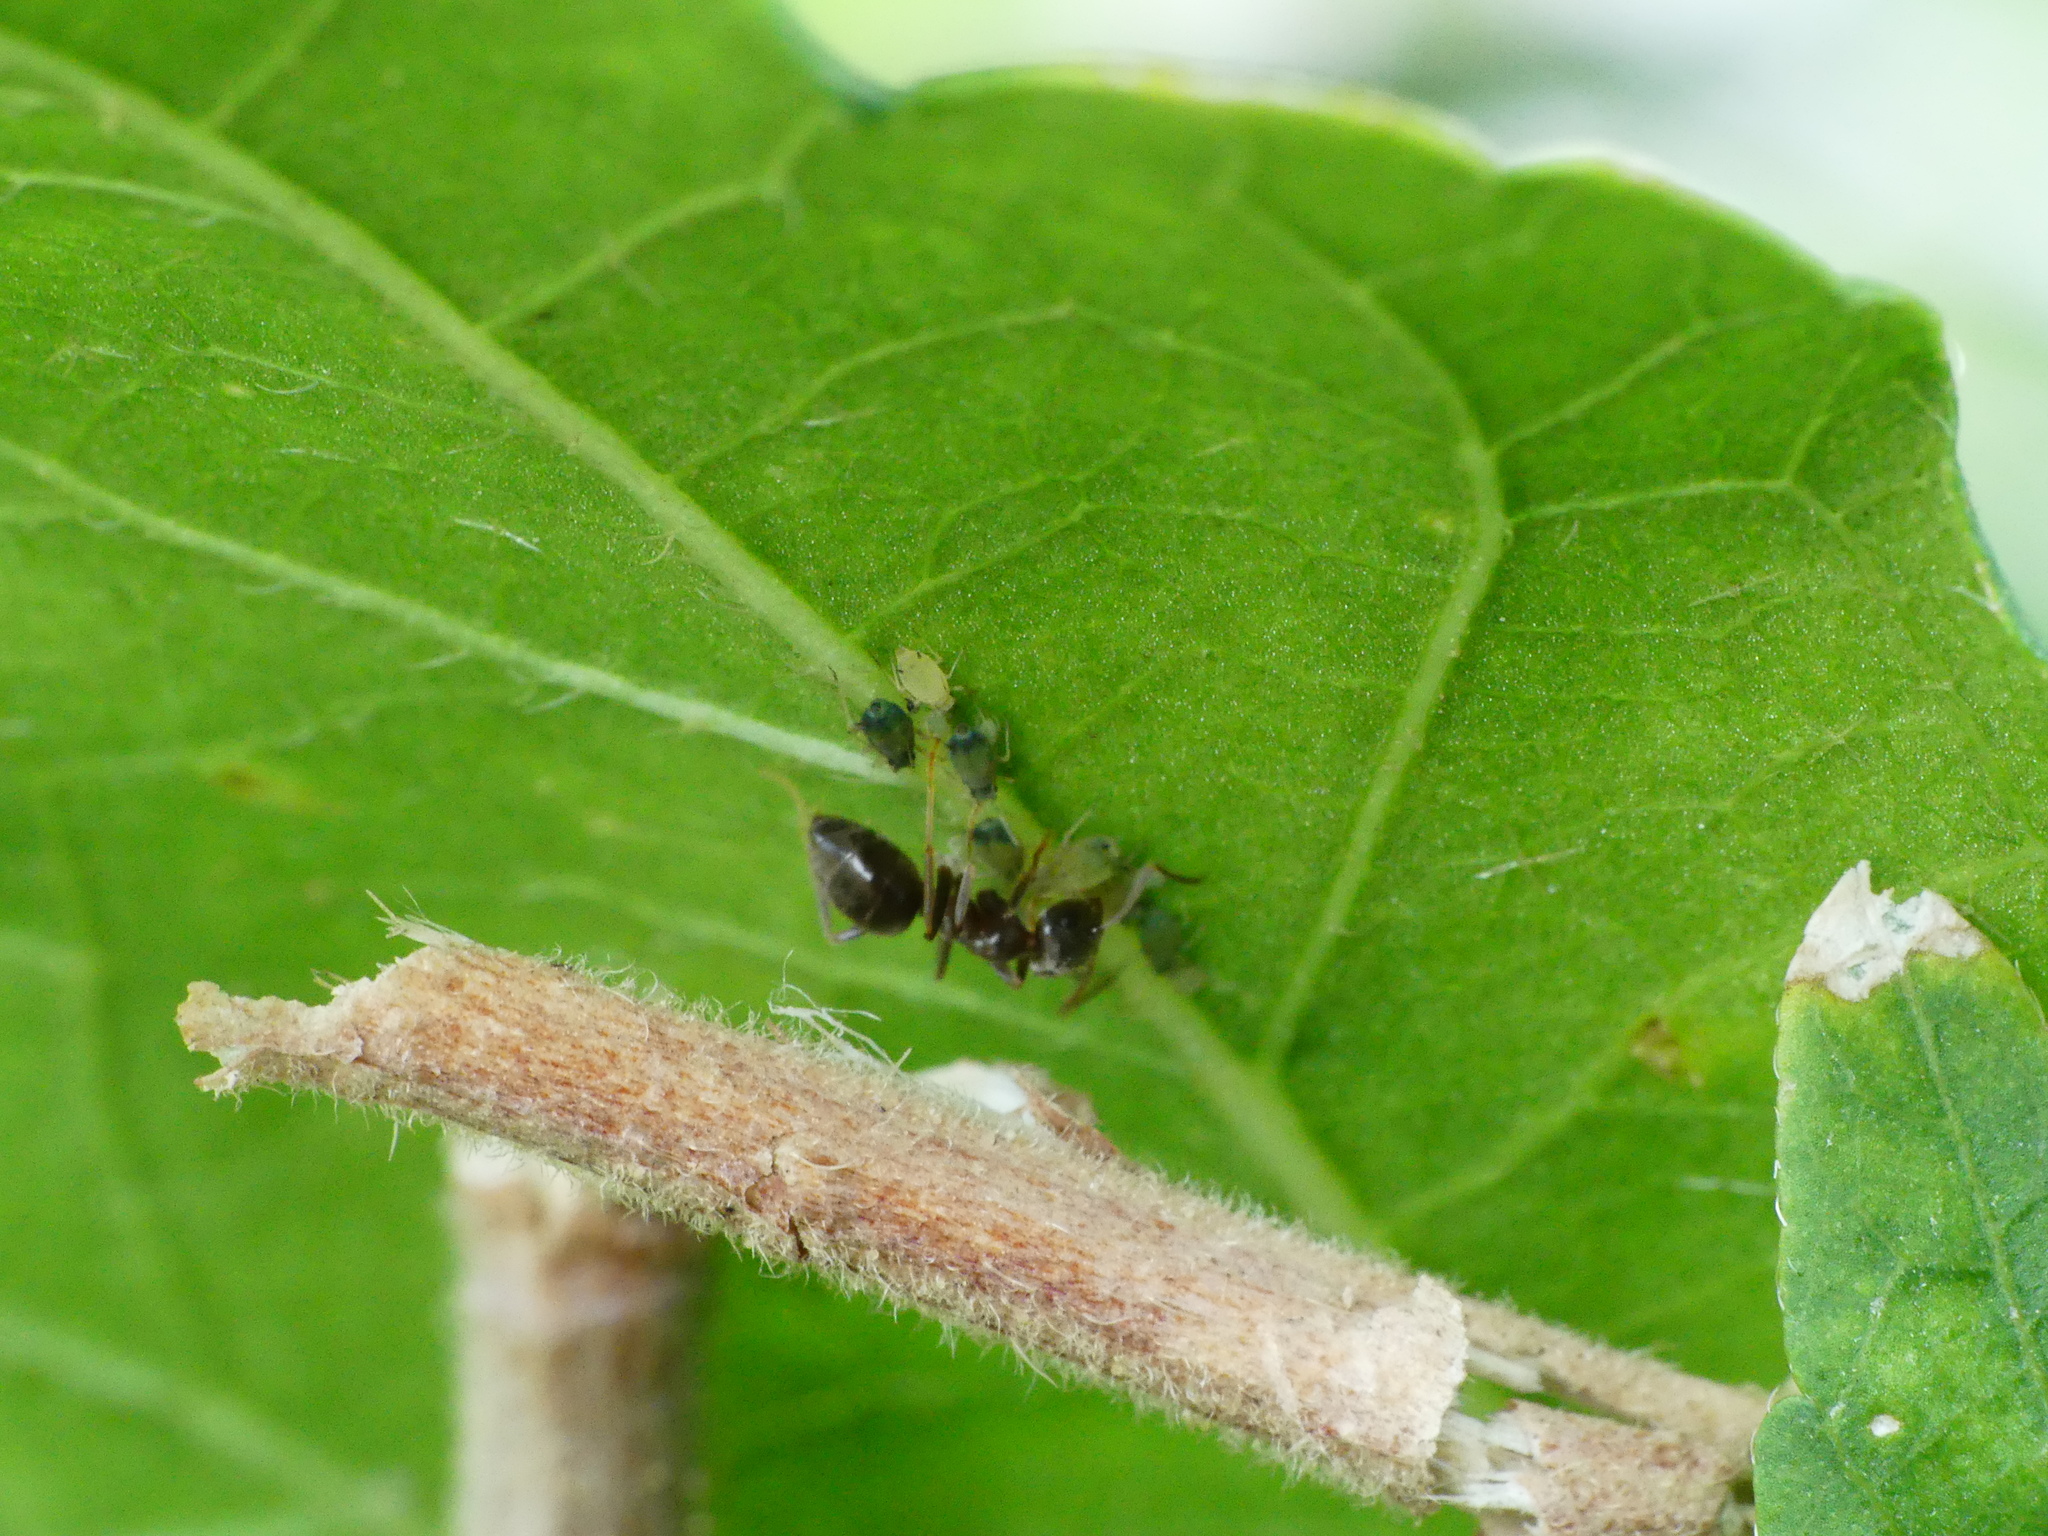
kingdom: Animalia
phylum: Arthropoda
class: Insecta
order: Hymenoptera
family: Formicidae
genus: Lasius
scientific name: Lasius niger
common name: Small black ant
